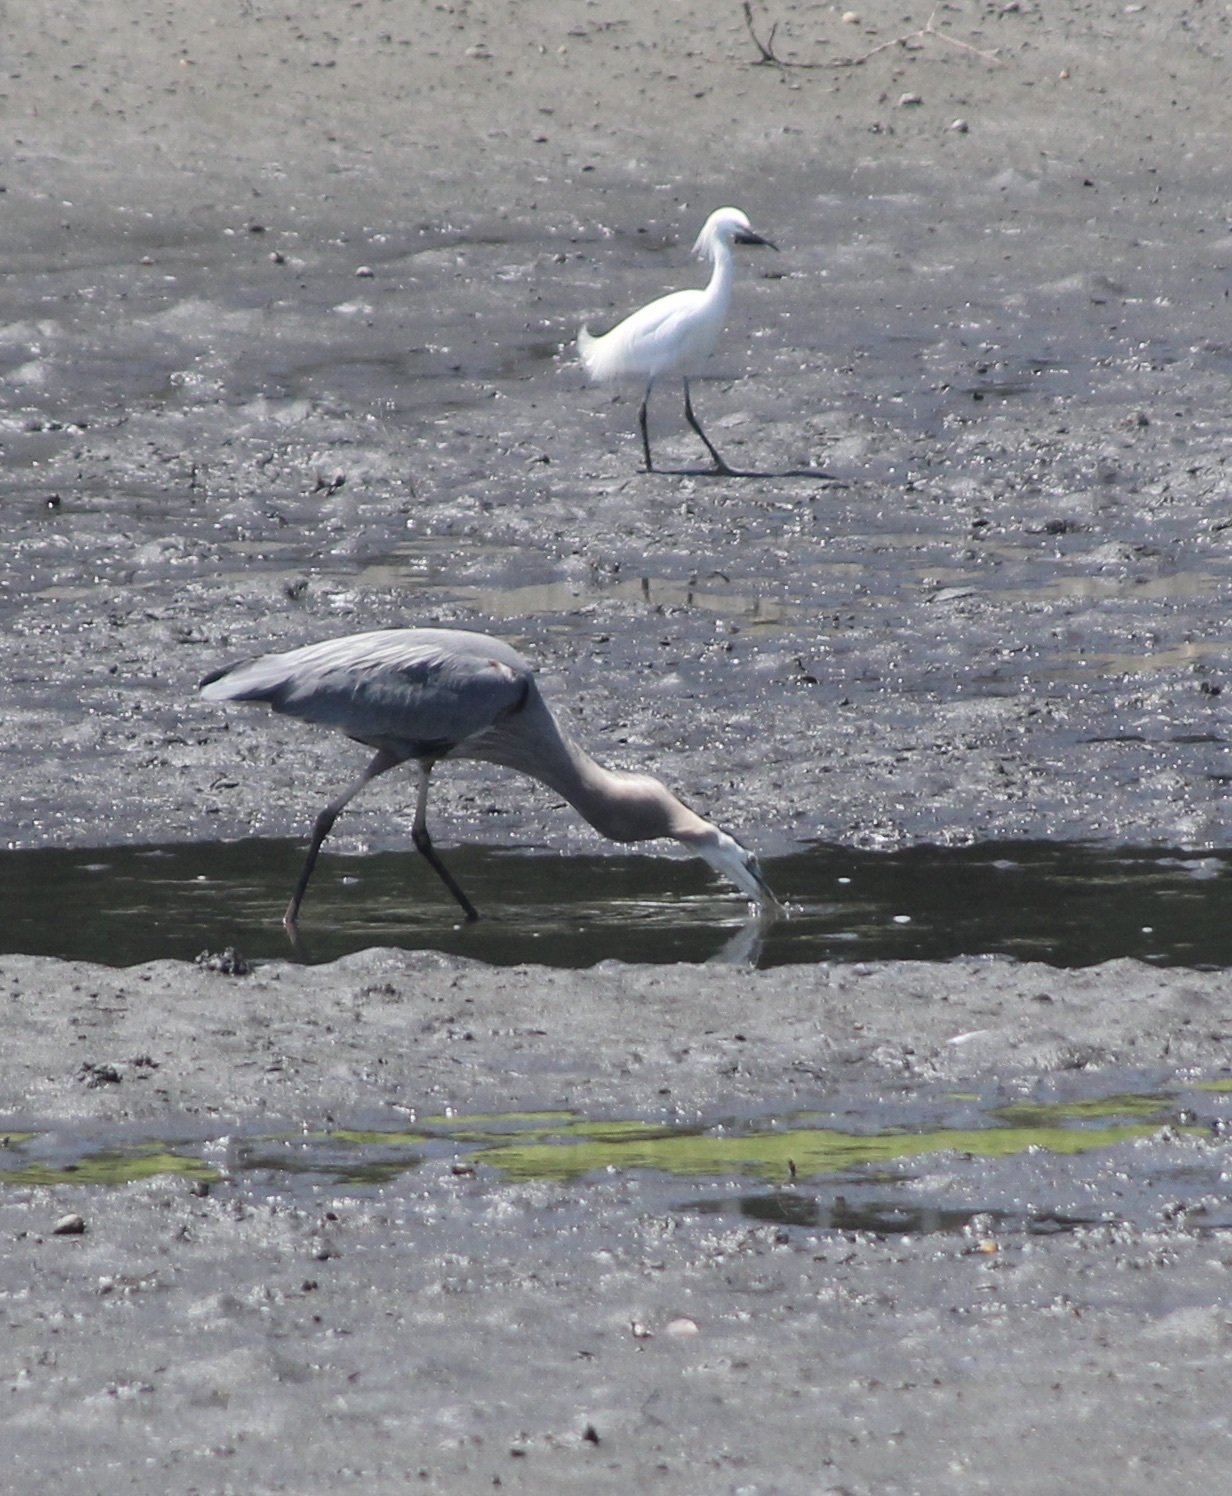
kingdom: Animalia
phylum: Chordata
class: Aves
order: Pelecaniformes
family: Ardeidae
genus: Ardea
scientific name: Ardea herodias
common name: Great blue heron
